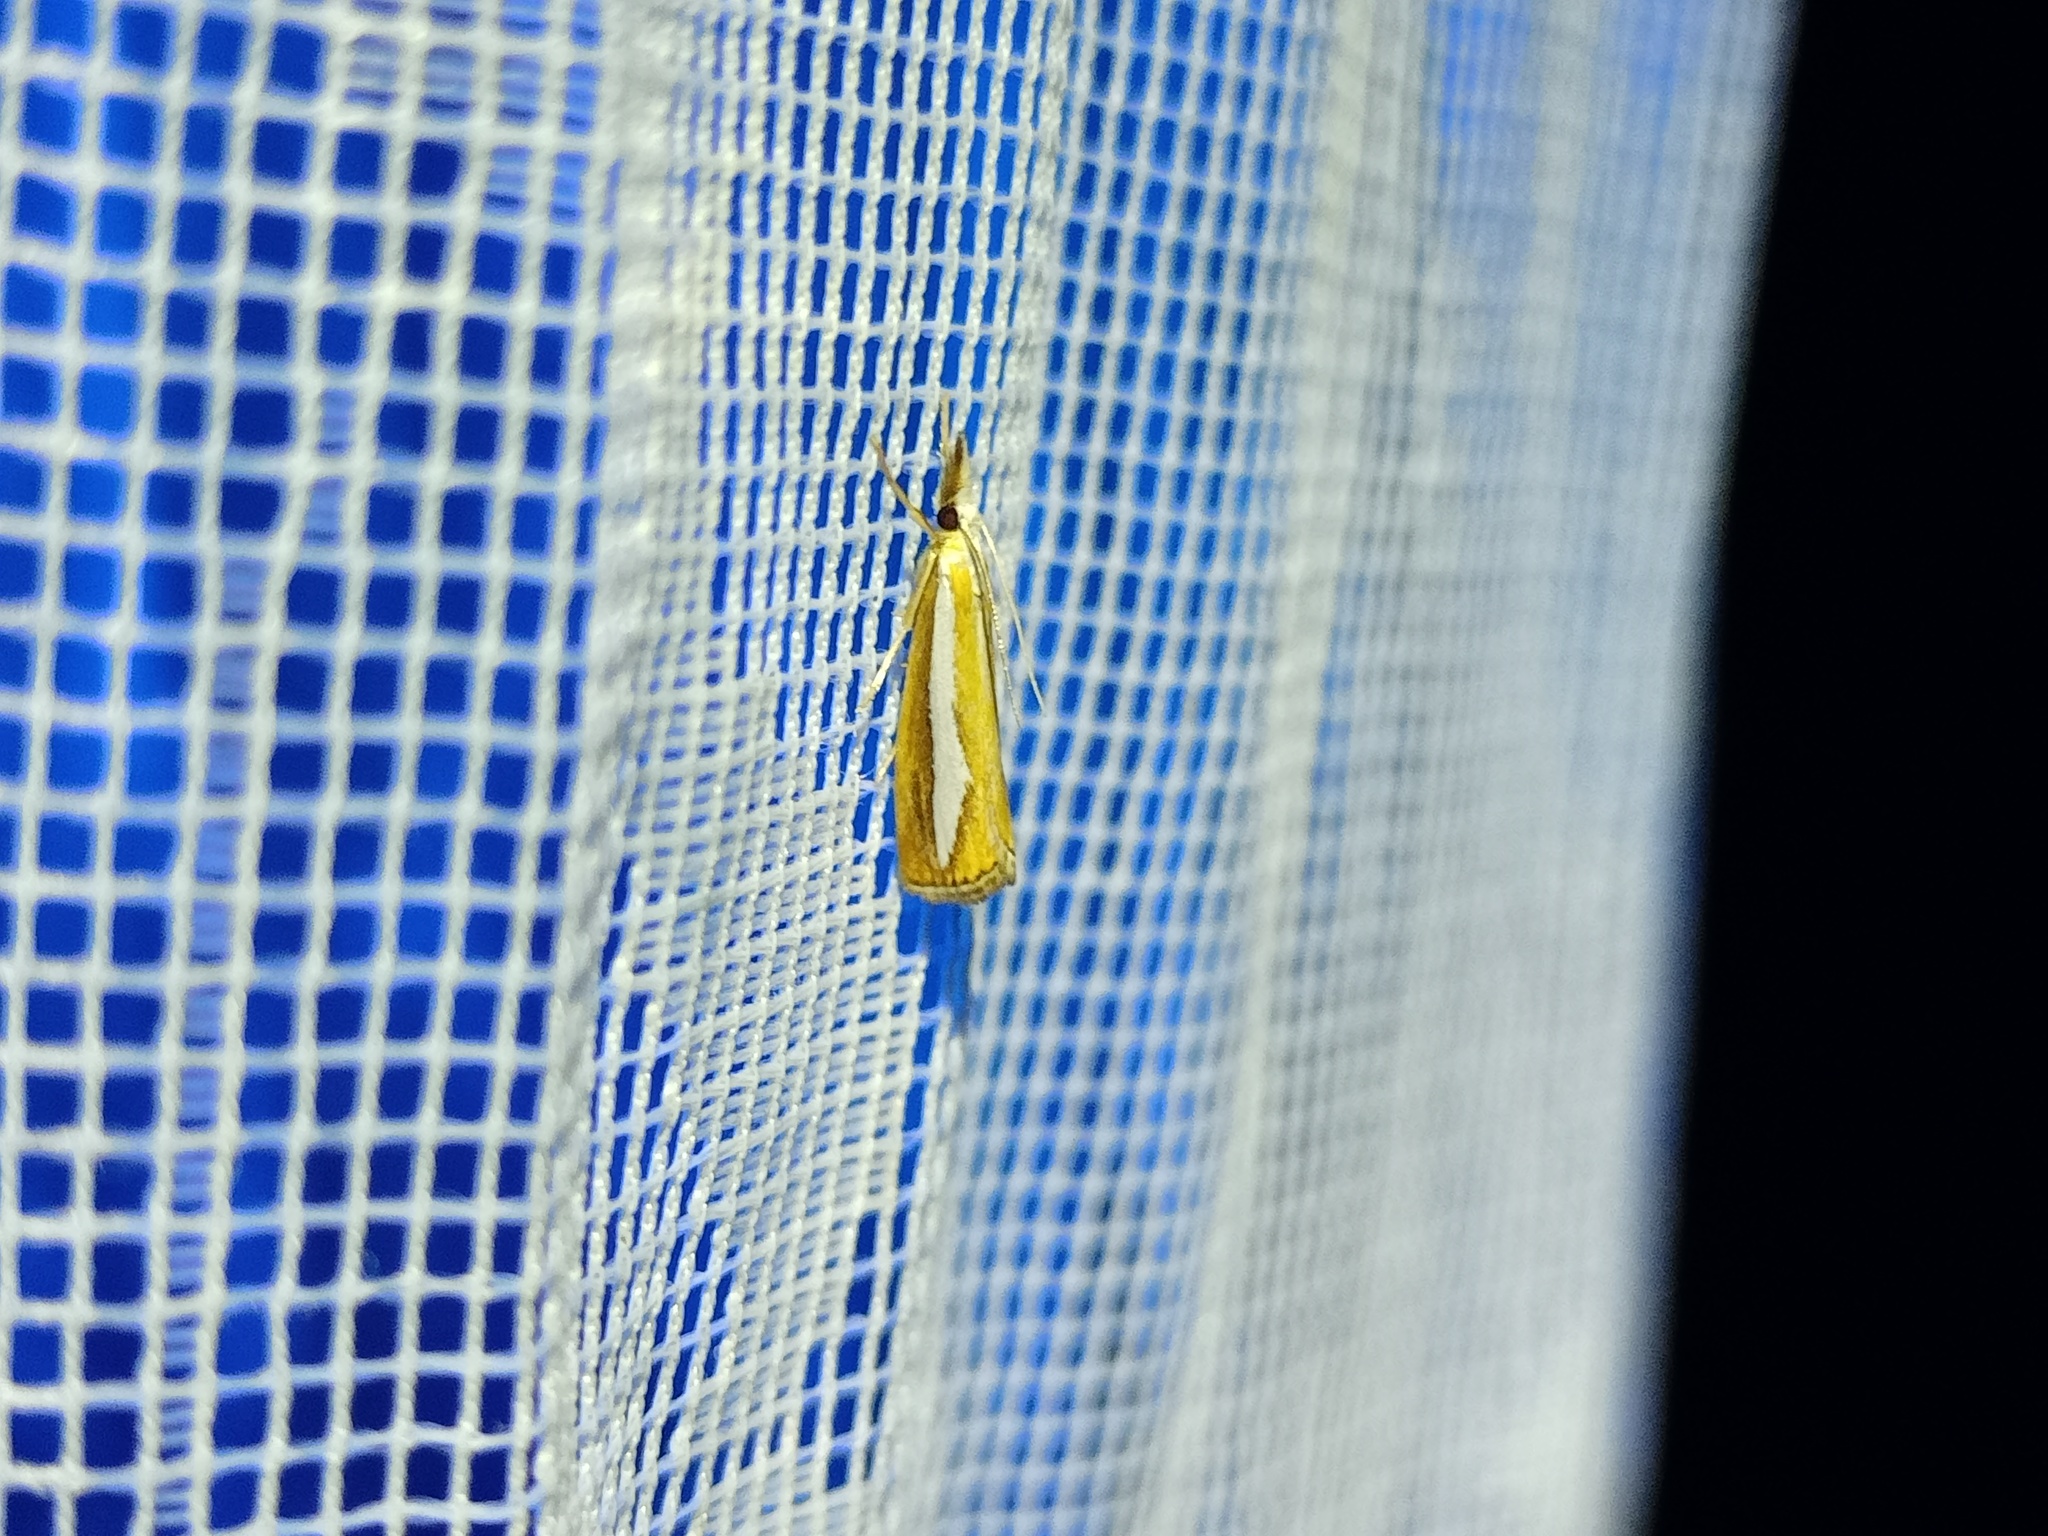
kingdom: Animalia
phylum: Arthropoda
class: Insecta
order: Lepidoptera
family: Crambidae
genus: Catoptria
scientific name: Catoptria margaritellus
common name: Pearl-band grass veneer
